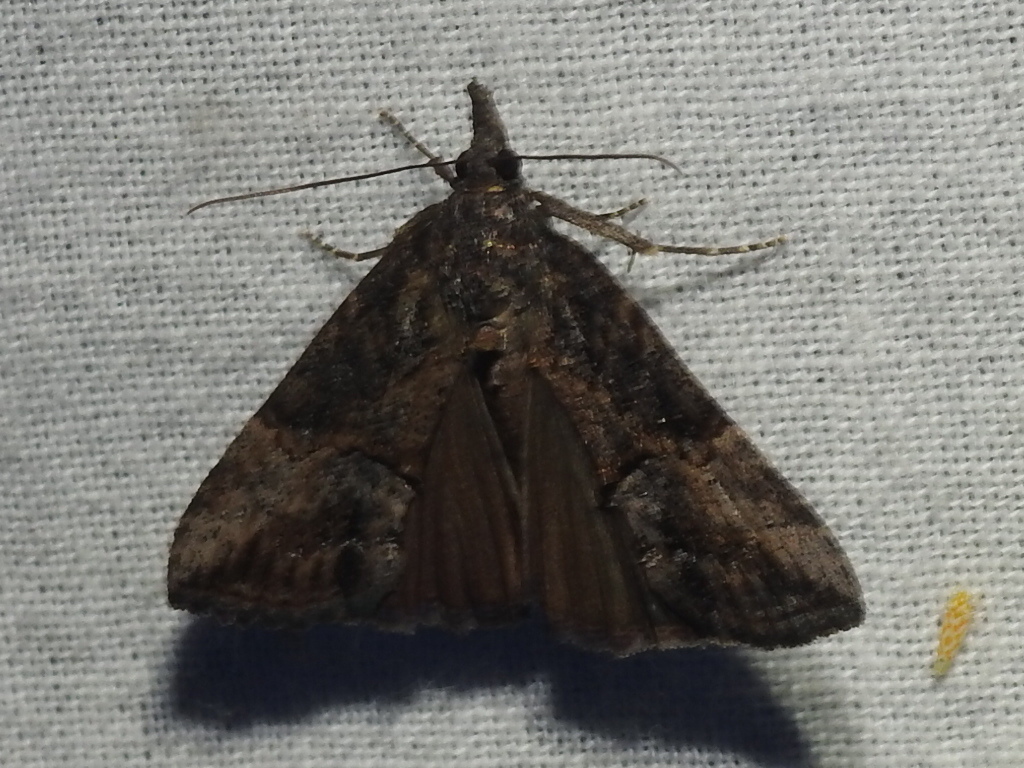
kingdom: Animalia
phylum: Arthropoda
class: Insecta
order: Lepidoptera
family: Erebidae
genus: Hypena
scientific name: Hypena scabra
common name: Green cloverworm
